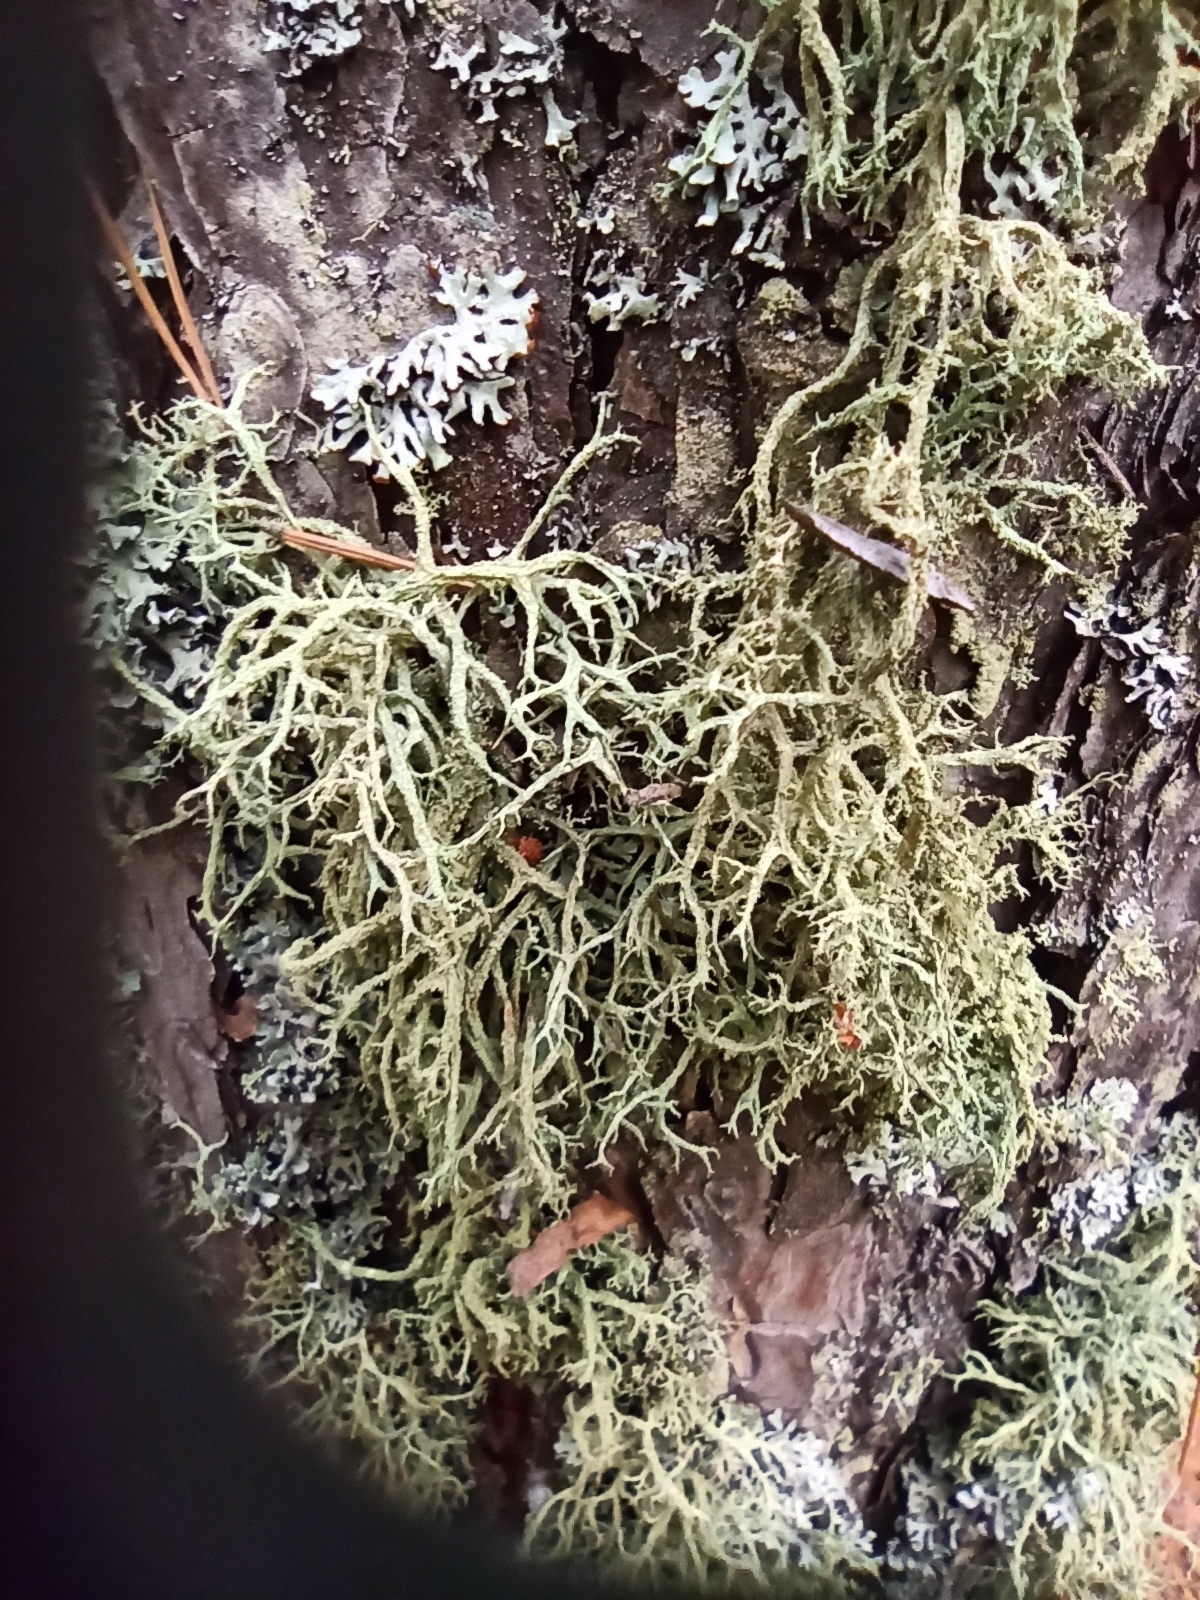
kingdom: Fungi
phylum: Ascomycota
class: Lecanoromycetes
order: Lecanorales
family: Parmeliaceae
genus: Evernia
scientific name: Evernia mesomorpha
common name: Boreal oak moss lichen
